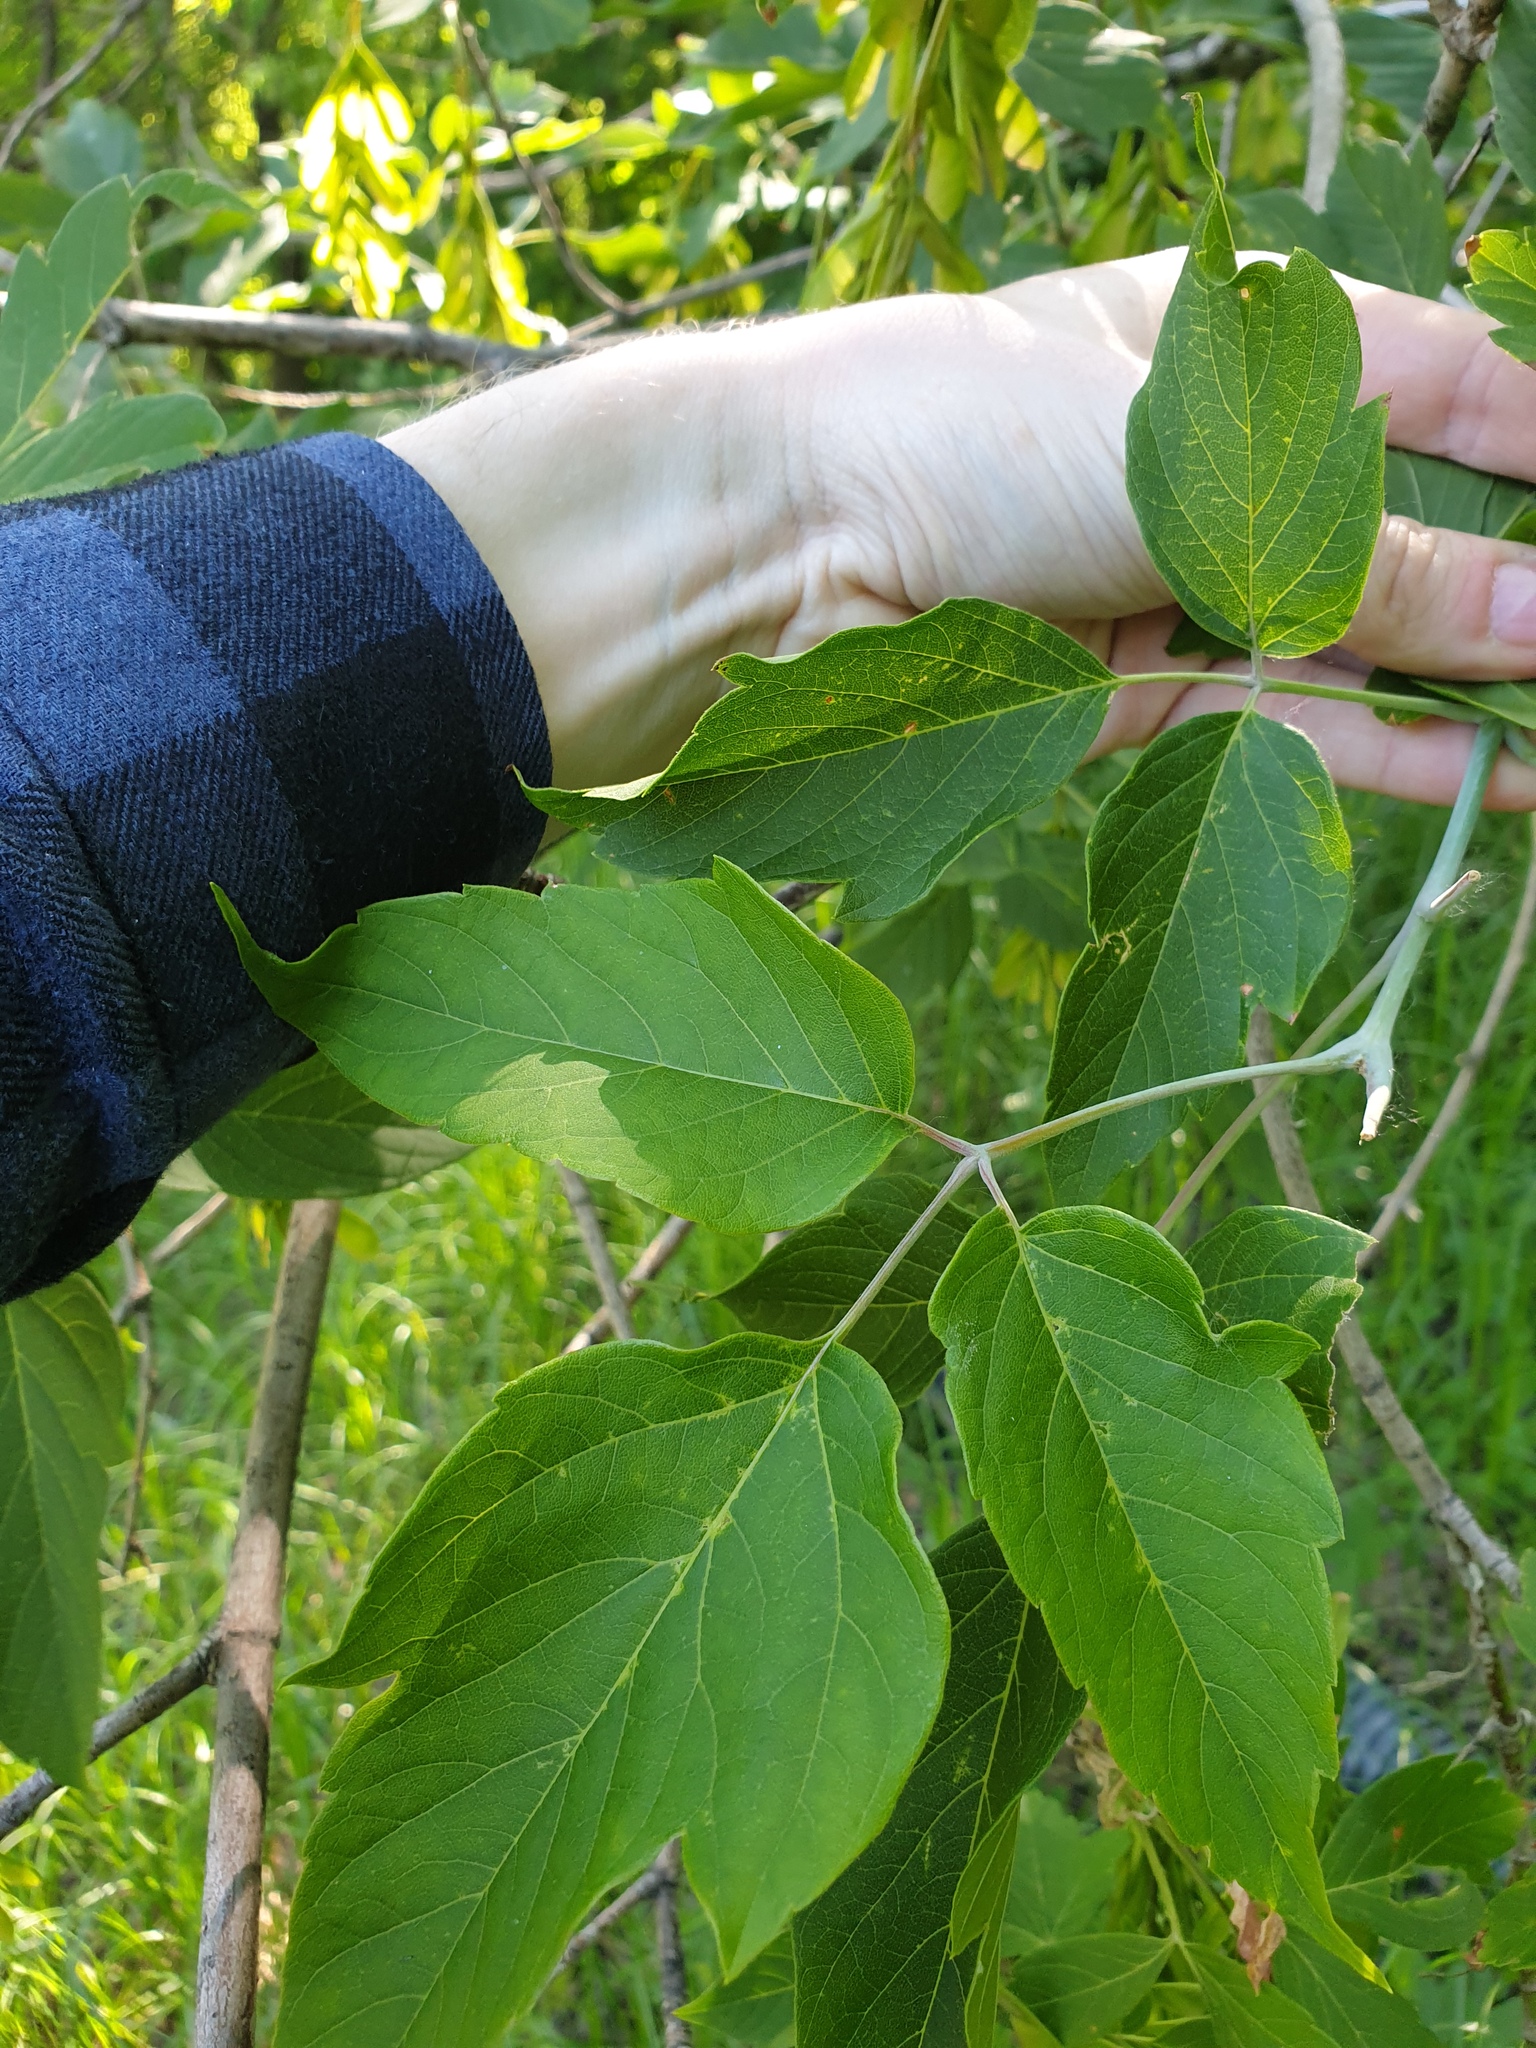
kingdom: Plantae
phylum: Tracheophyta
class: Magnoliopsida
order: Sapindales
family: Sapindaceae
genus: Acer
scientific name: Acer negundo
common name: Ashleaf maple
